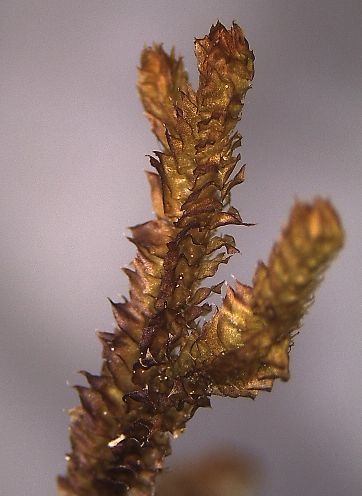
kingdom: Plantae
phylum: Marchantiophyta
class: Jungermanniopsida
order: Jungermanniales
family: Anastrophyllaceae
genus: Chandonanthus
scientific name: Chandonanthus squarrosus
